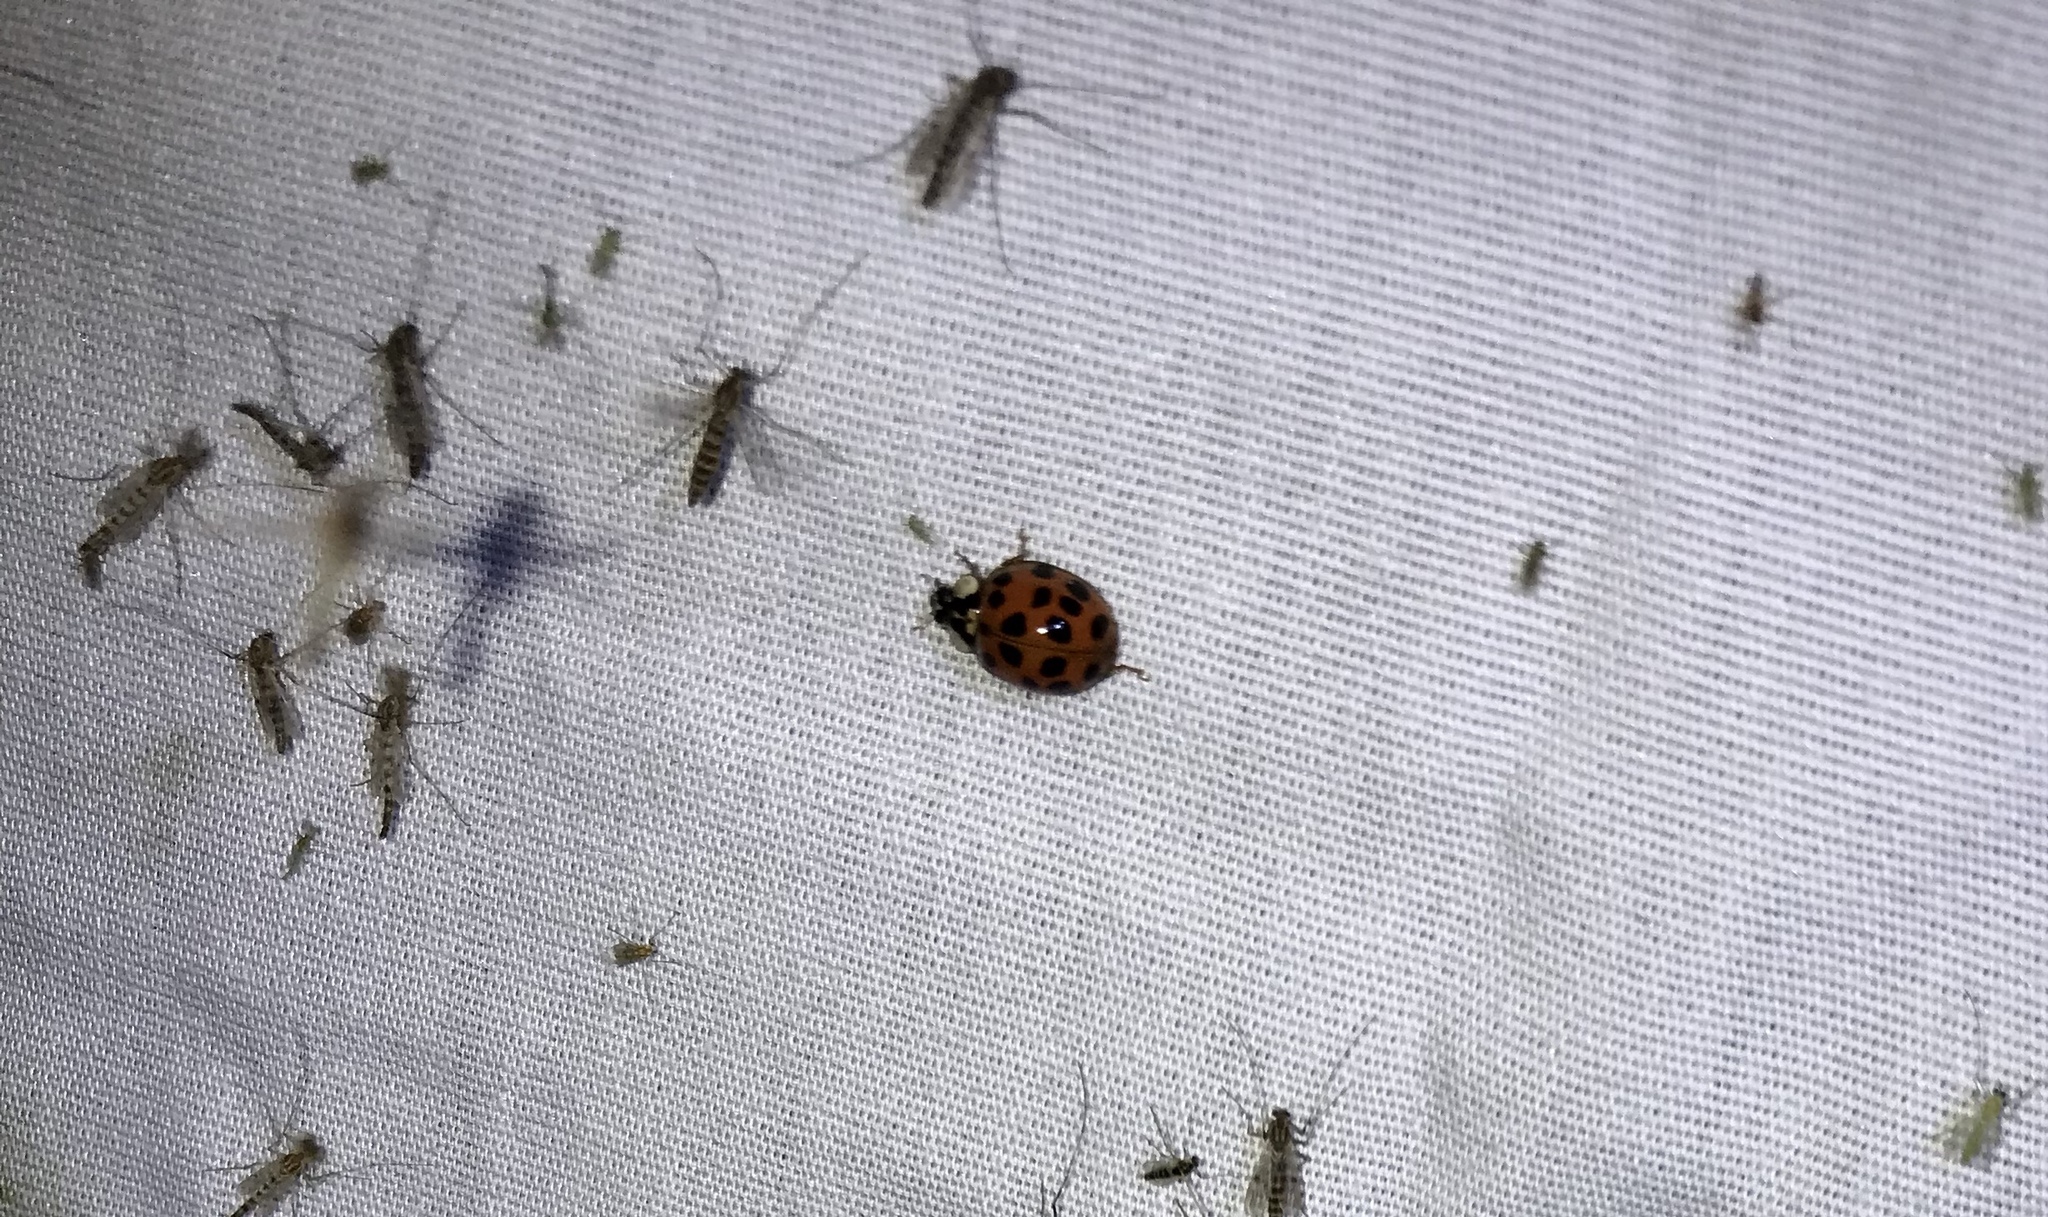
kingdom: Animalia
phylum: Arthropoda
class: Insecta
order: Coleoptera
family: Coccinellidae
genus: Harmonia
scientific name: Harmonia axyridis
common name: Harlequin ladybird
